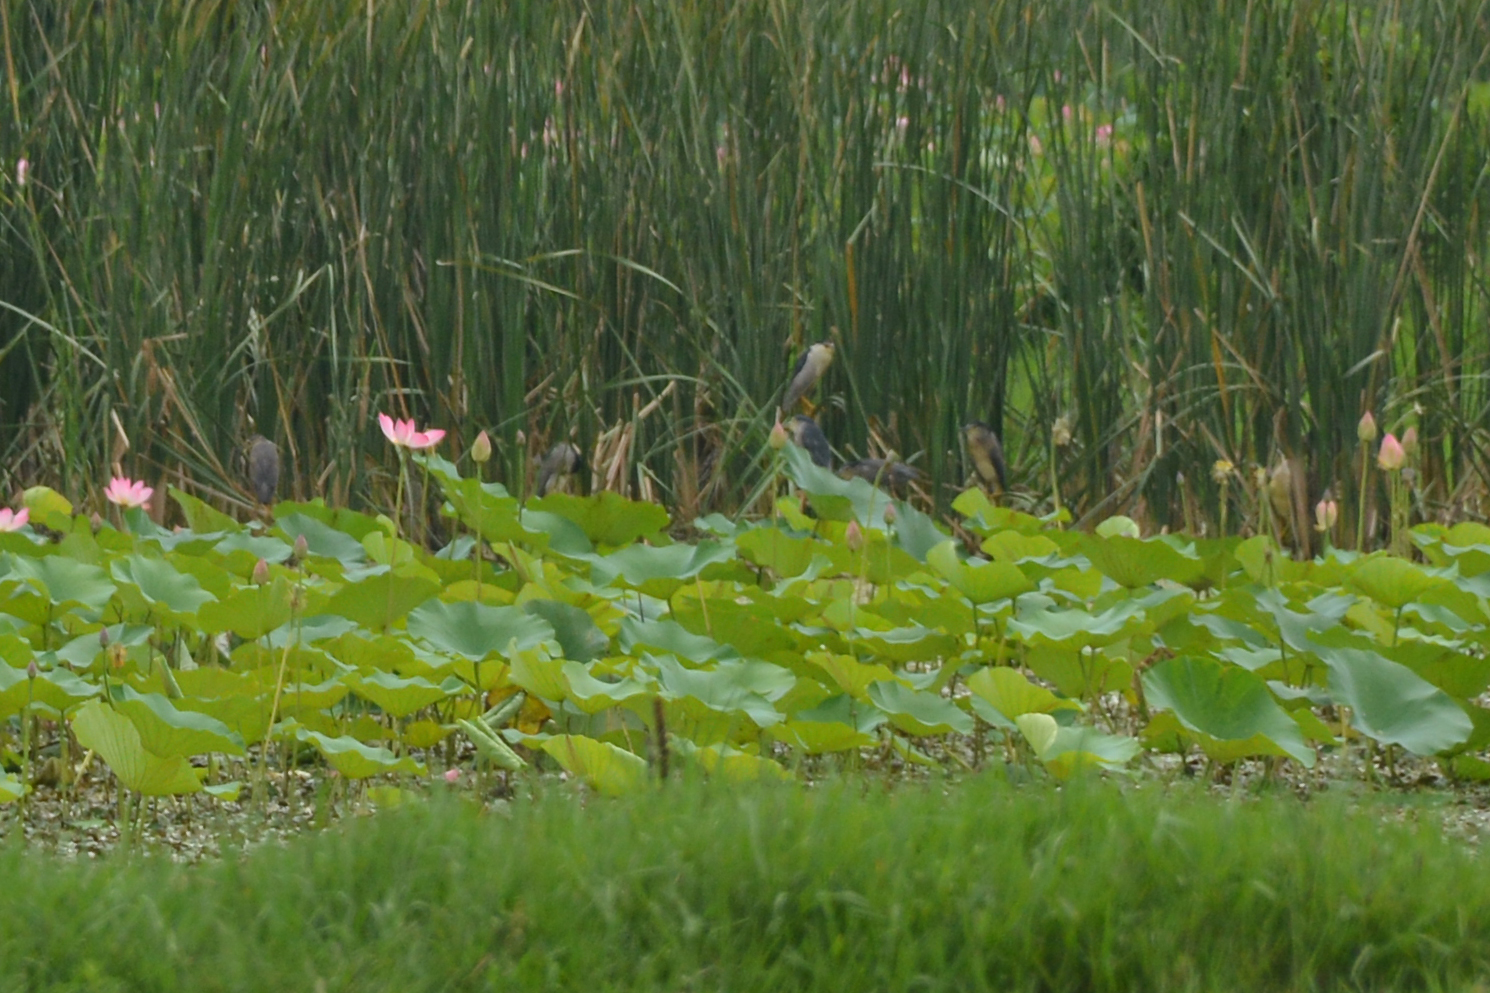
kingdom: Animalia
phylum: Chordata
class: Aves
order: Pelecaniformes
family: Ardeidae
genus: Nycticorax
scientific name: Nycticorax nycticorax
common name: Black-crowned night heron
